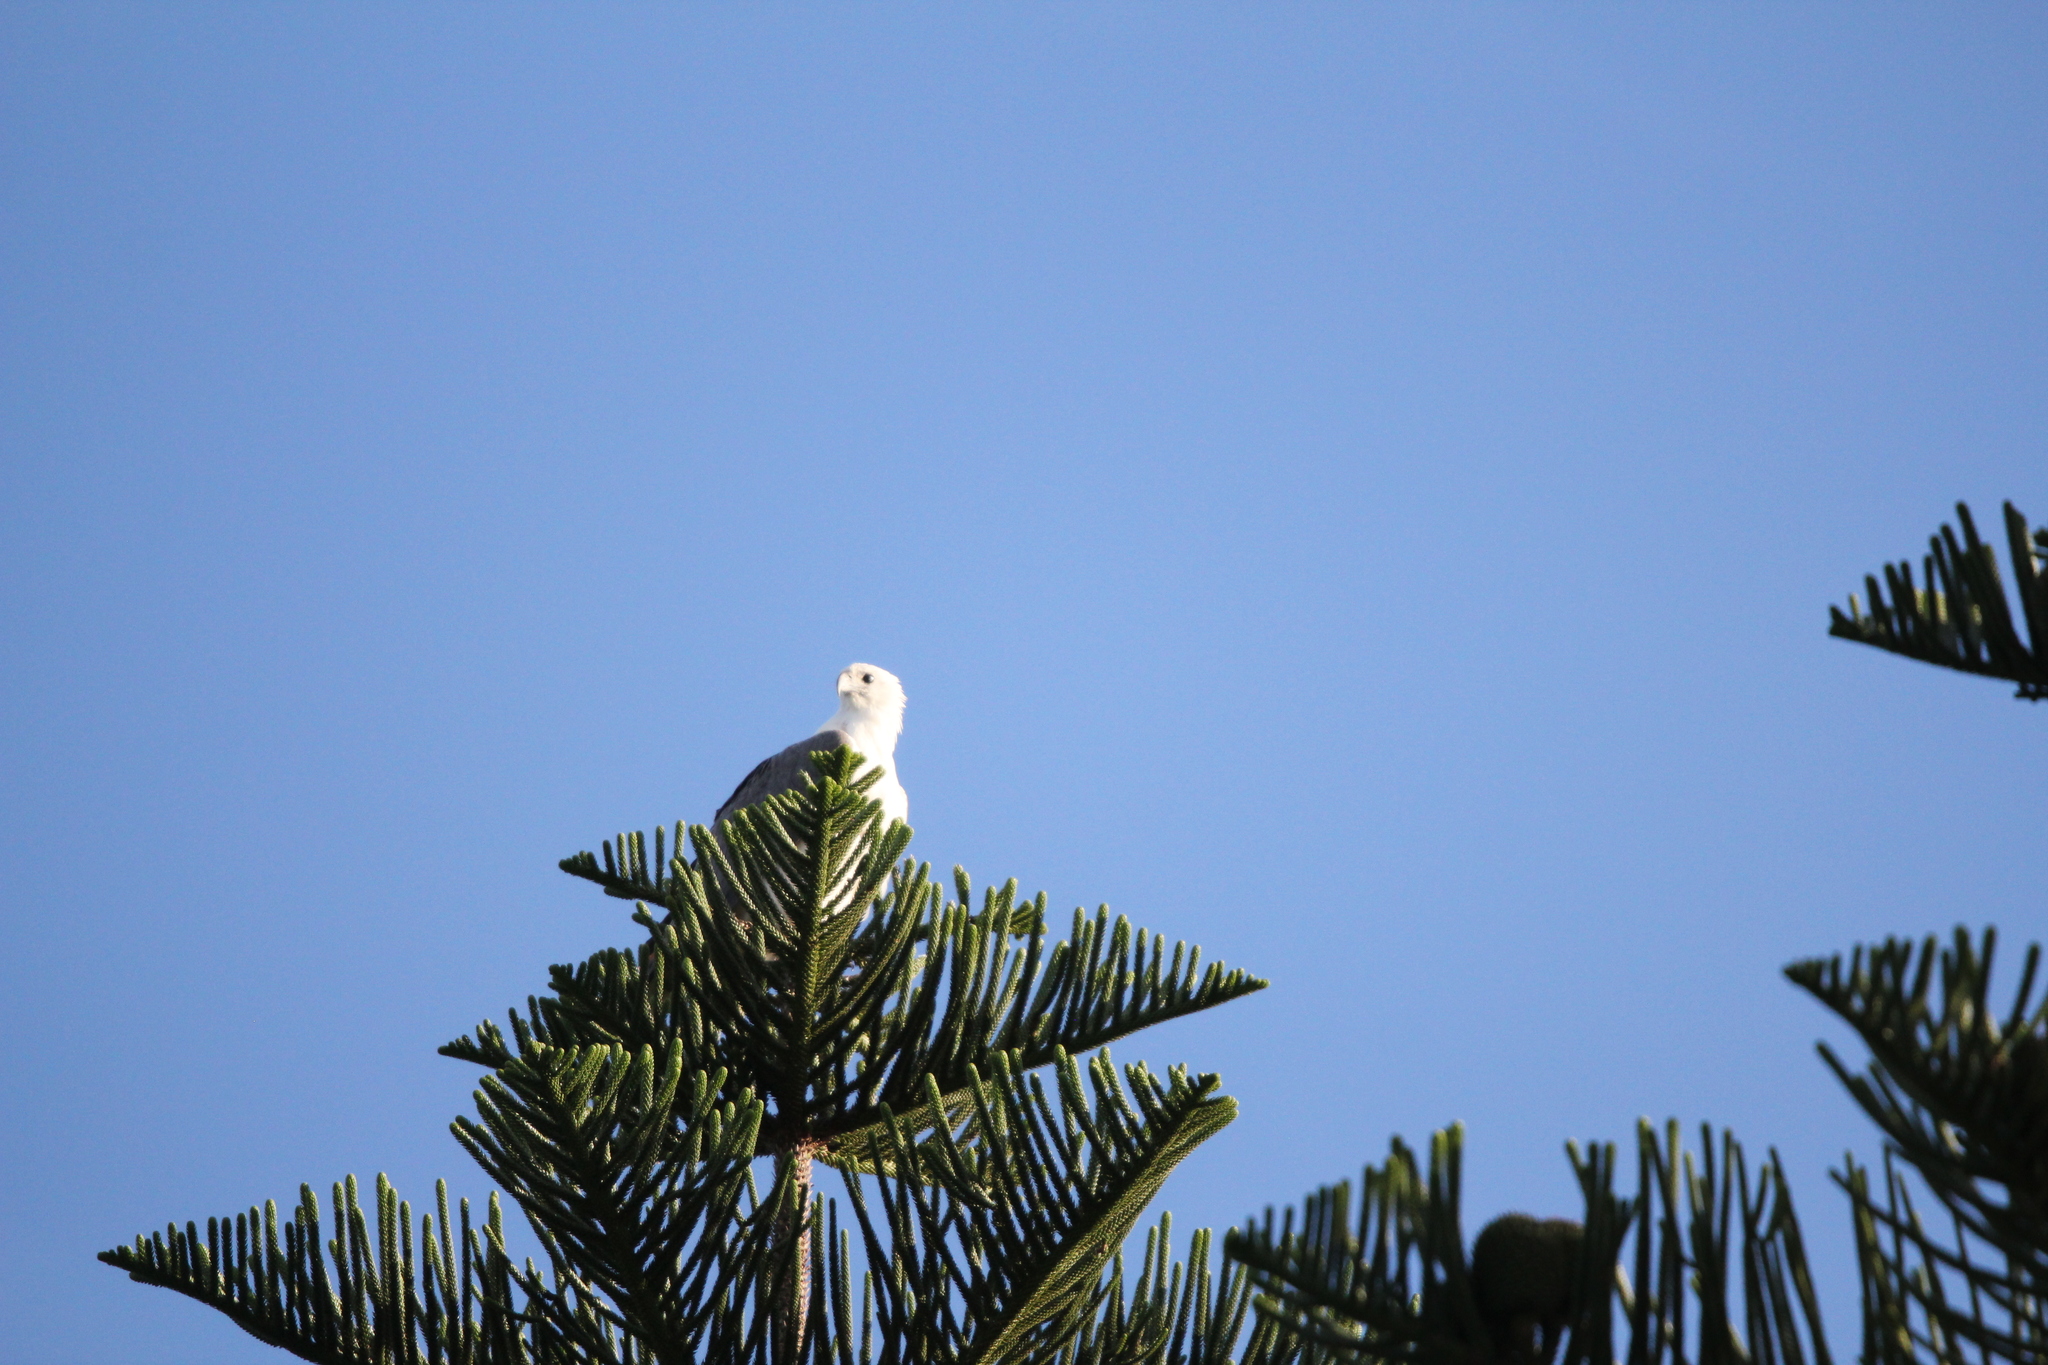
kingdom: Animalia
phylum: Chordata
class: Aves
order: Accipitriformes
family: Accipitridae
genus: Haliaeetus
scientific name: Haliaeetus leucogaster
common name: White-bellied sea eagle
